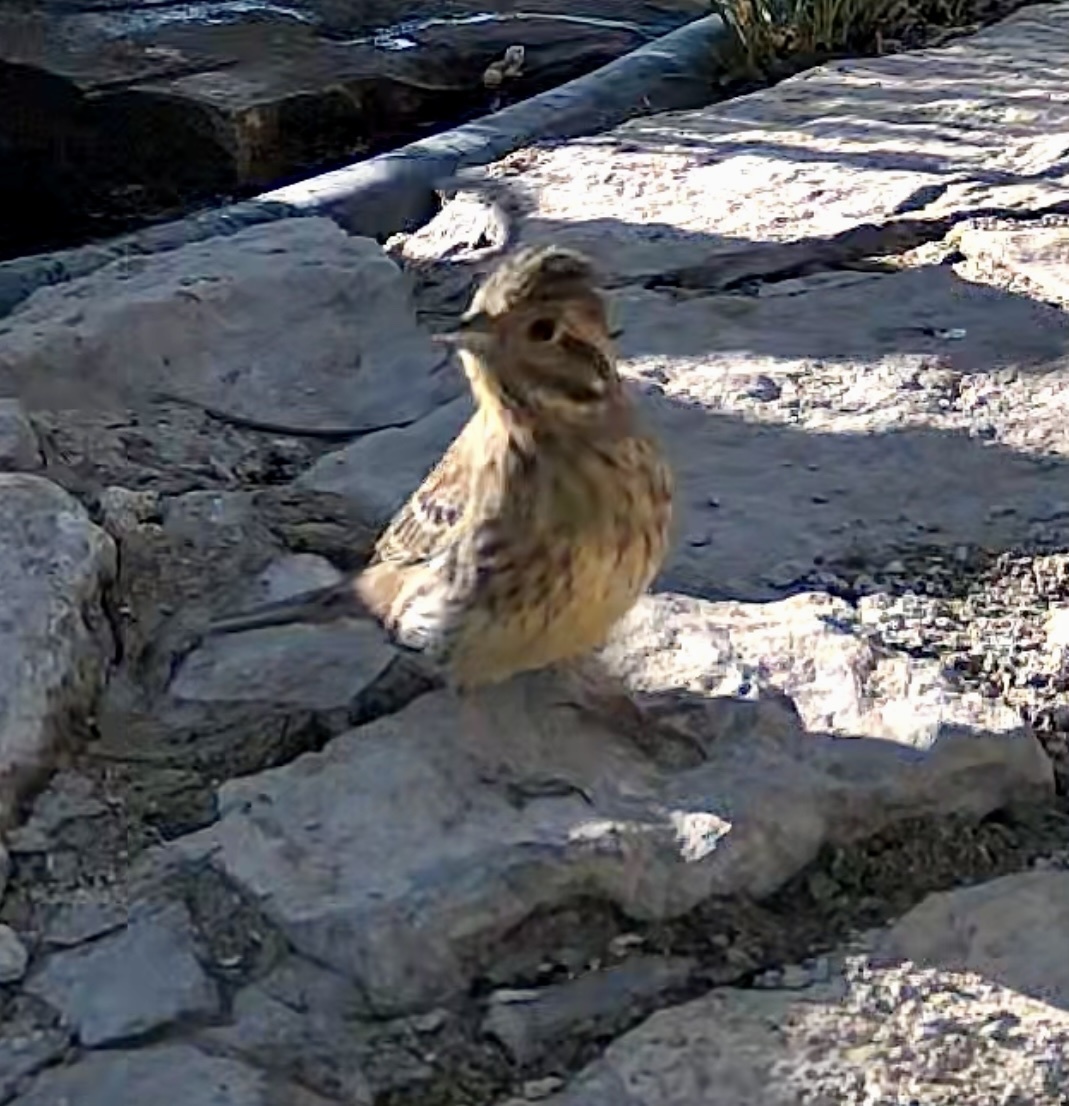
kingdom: Animalia
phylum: Chordata
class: Aves
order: Passeriformes
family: Emberizidae
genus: Emberiza
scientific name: Emberiza cirlus
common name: Cirl bunting
